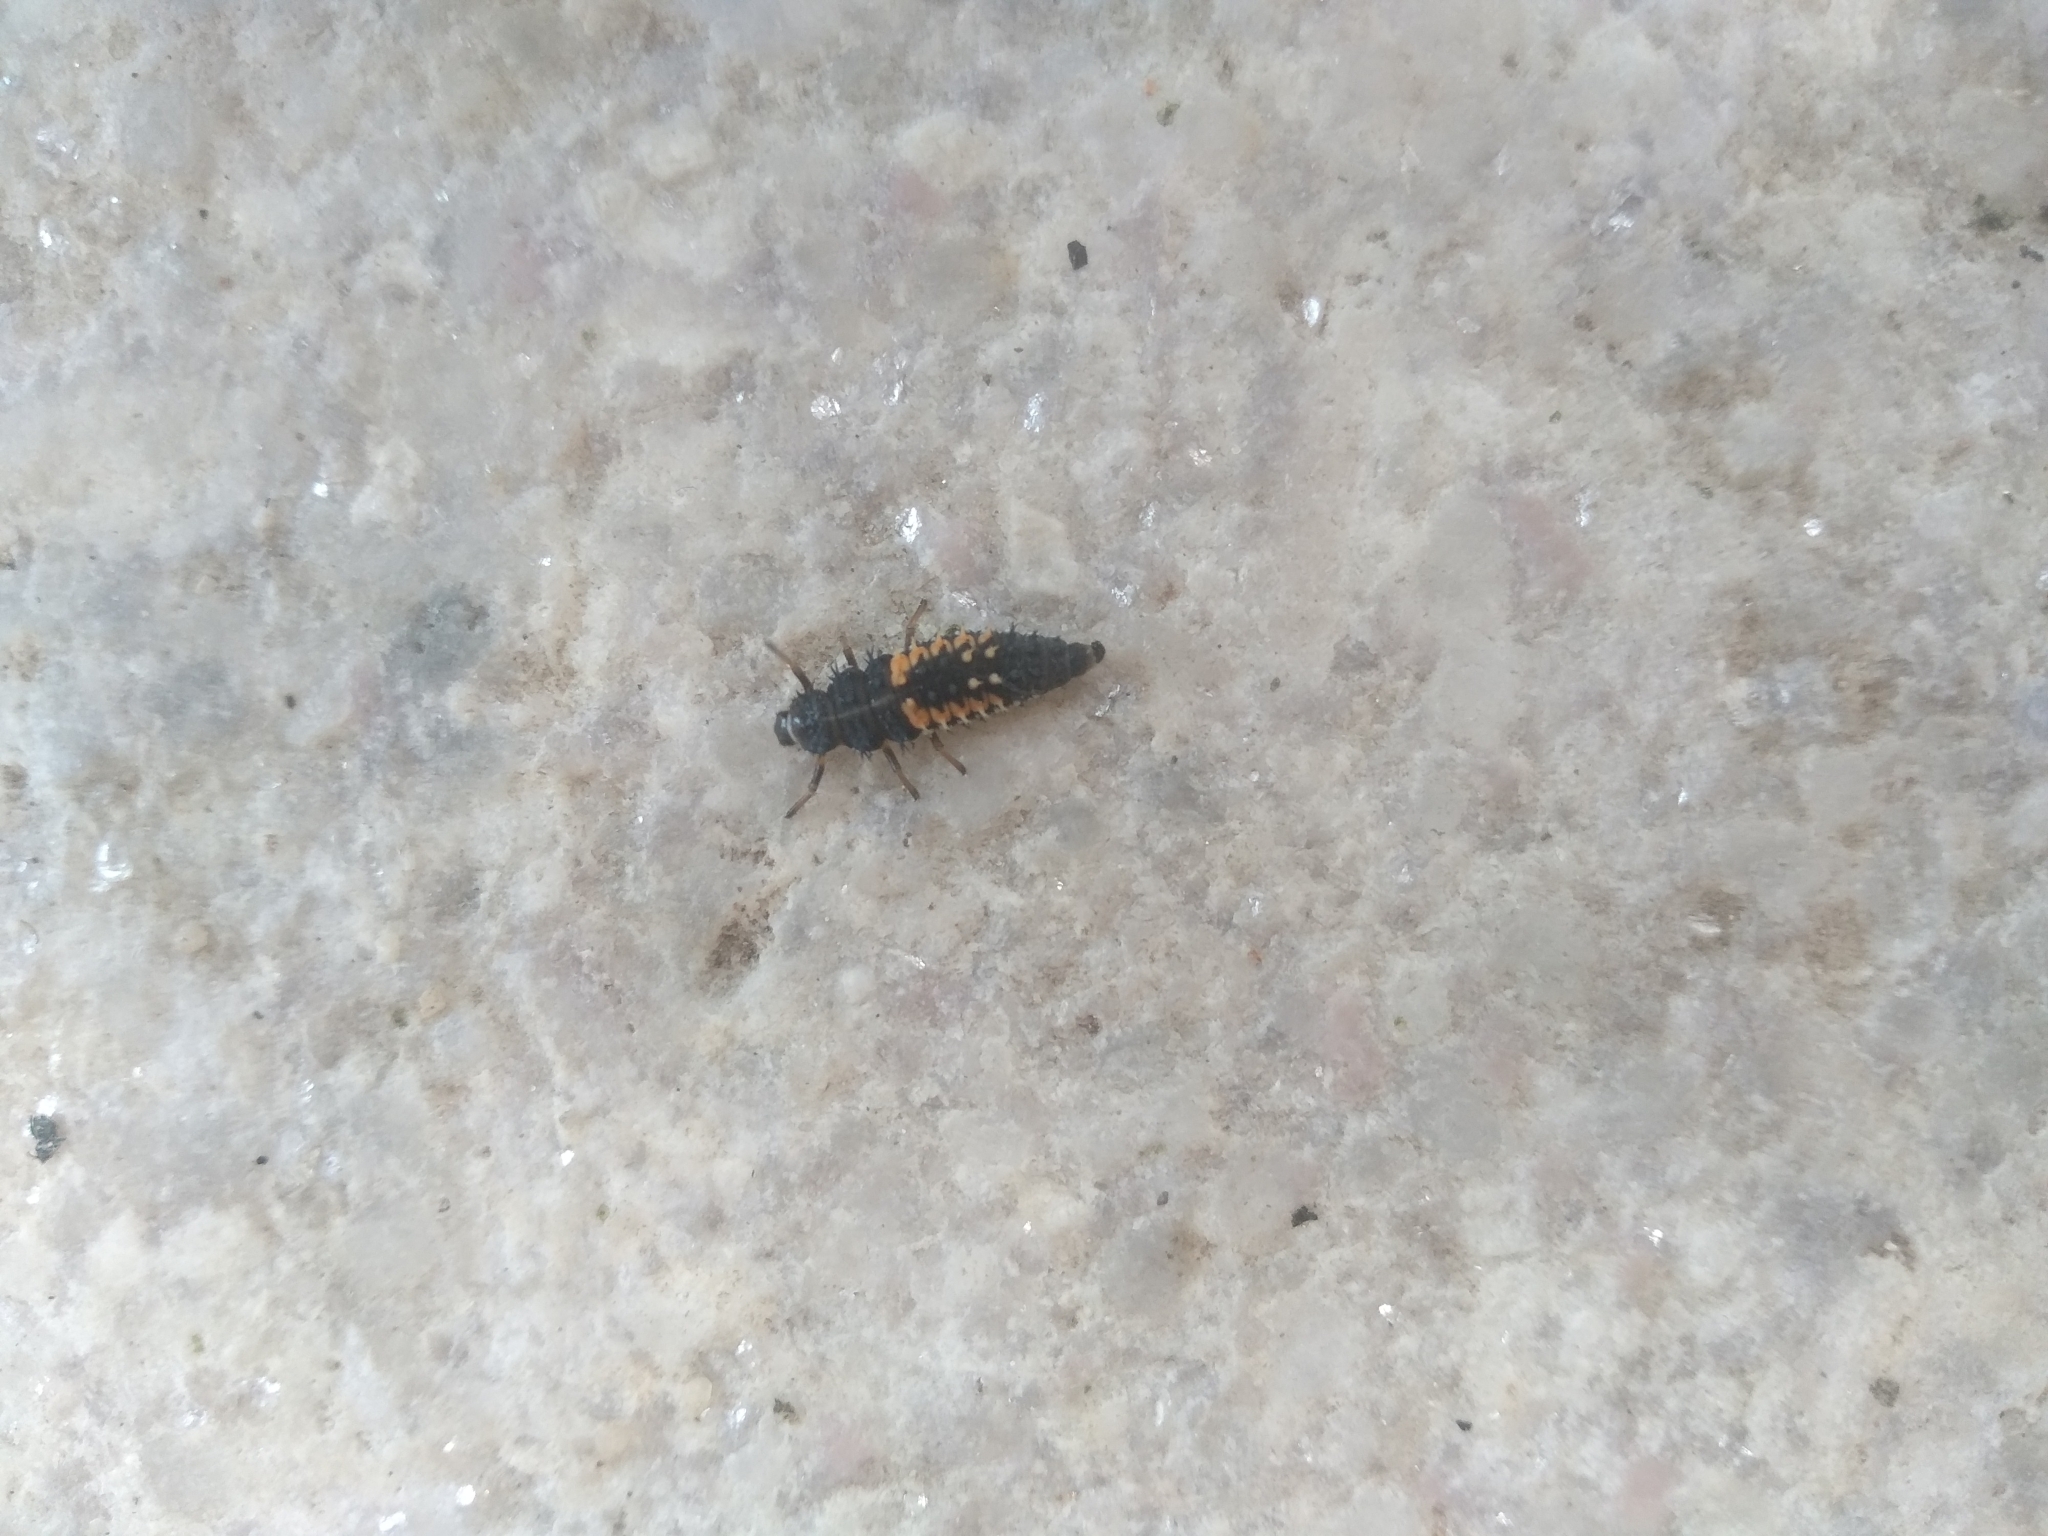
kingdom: Animalia
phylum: Arthropoda
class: Insecta
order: Coleoptera
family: Coccinellidae
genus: Harmonia
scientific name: Harmonia axyridis
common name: Harlequin ladybird
